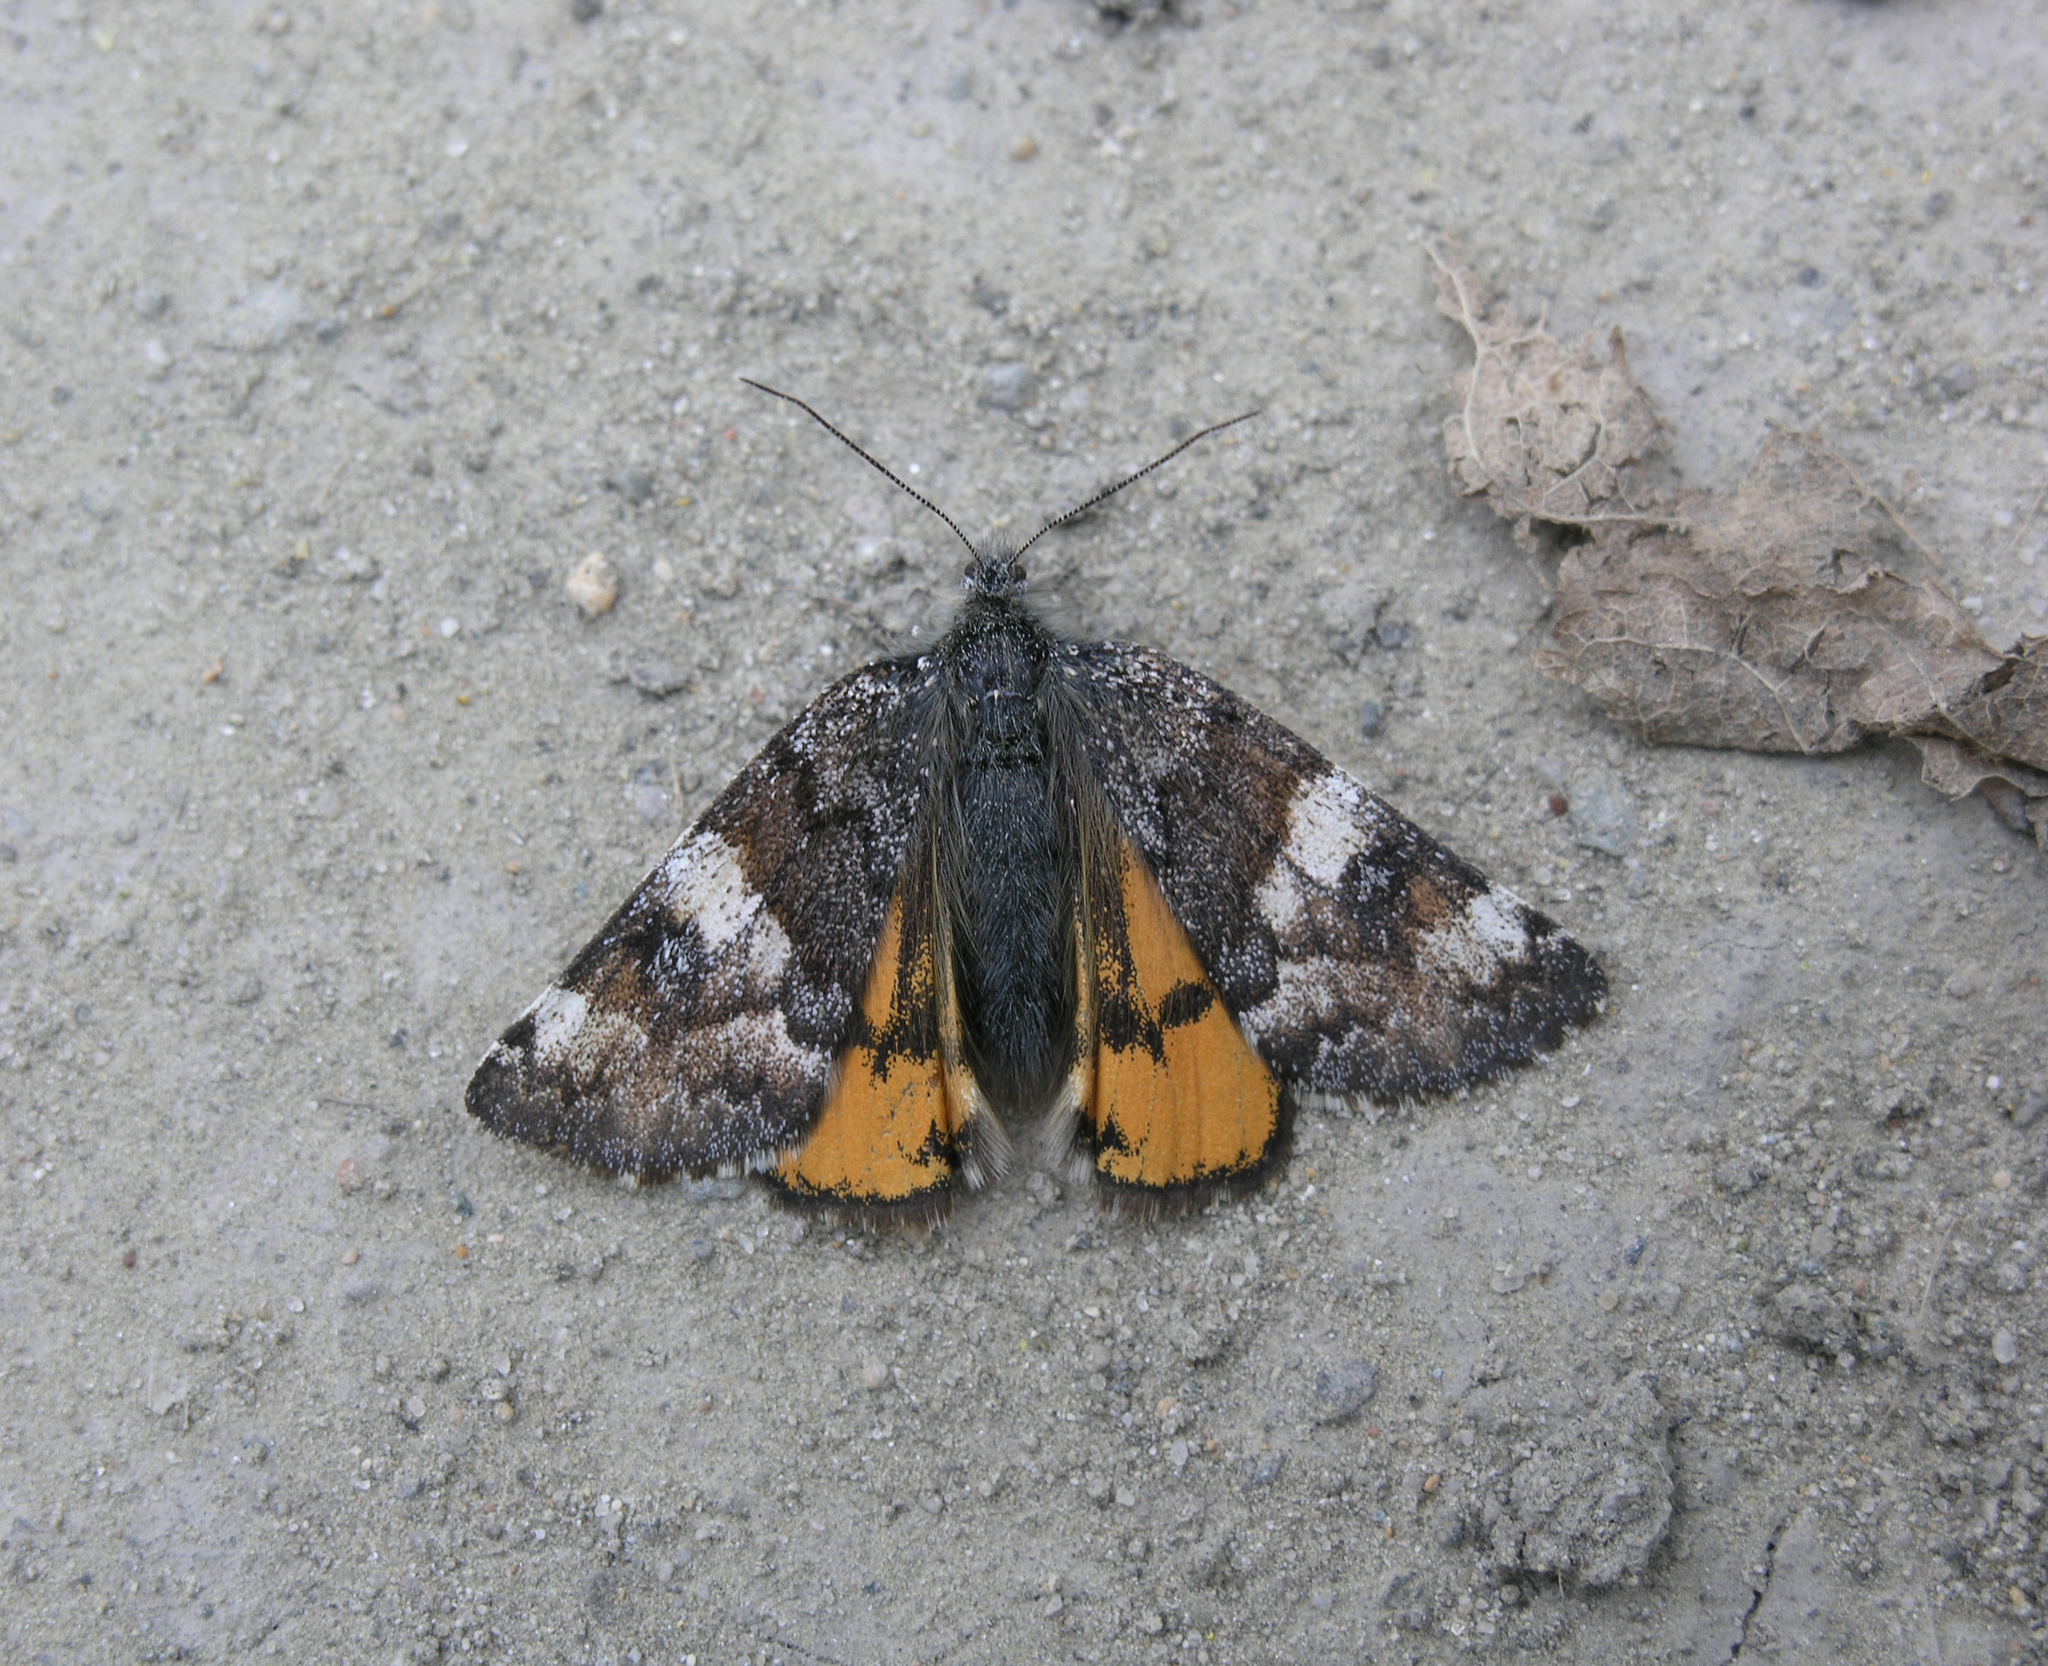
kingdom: Animalia
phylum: Arthropoda
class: Insecta
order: Lepidoptera
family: Geometridae
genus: Archiearis
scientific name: Archiearis parthenias
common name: Orange underwing
